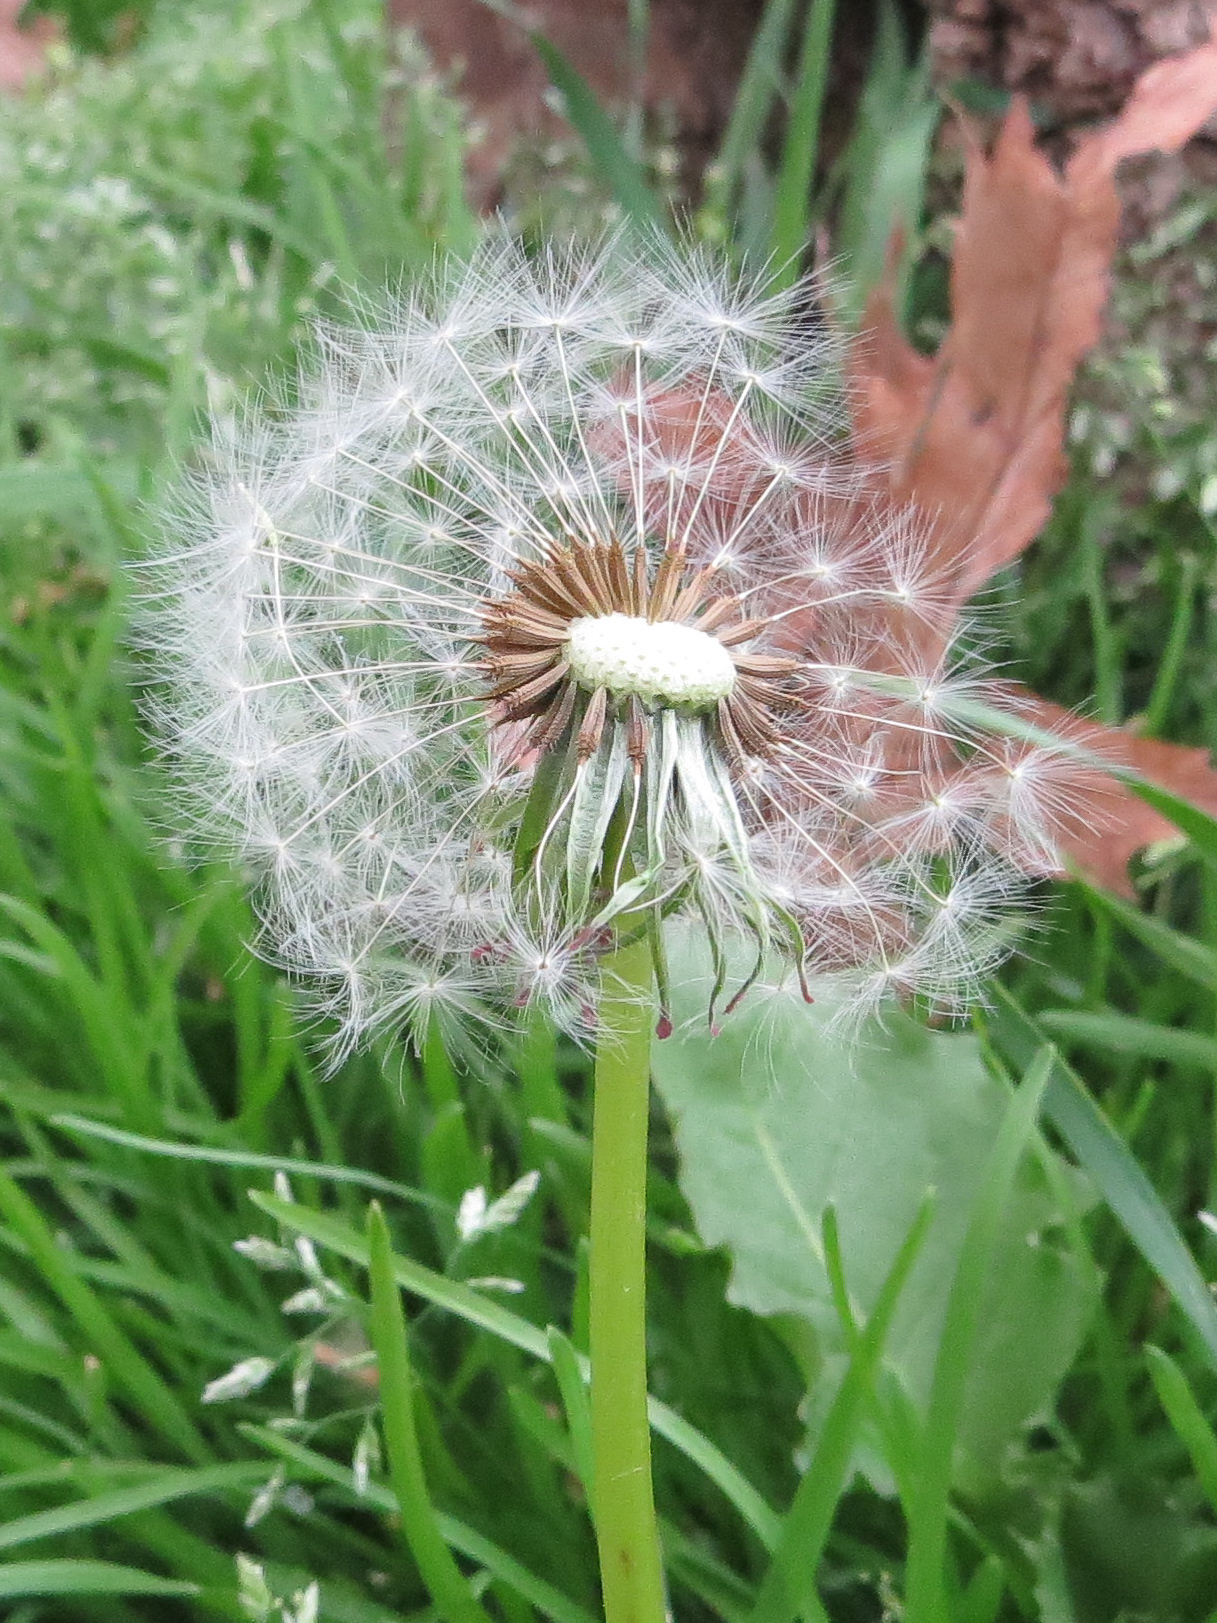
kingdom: Plantae
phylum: Tracheophyta
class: Magnoliopsida
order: Asterales
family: Asteraceae
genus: Taraxacum
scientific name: Taraxacum officinale
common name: Common dandelion
